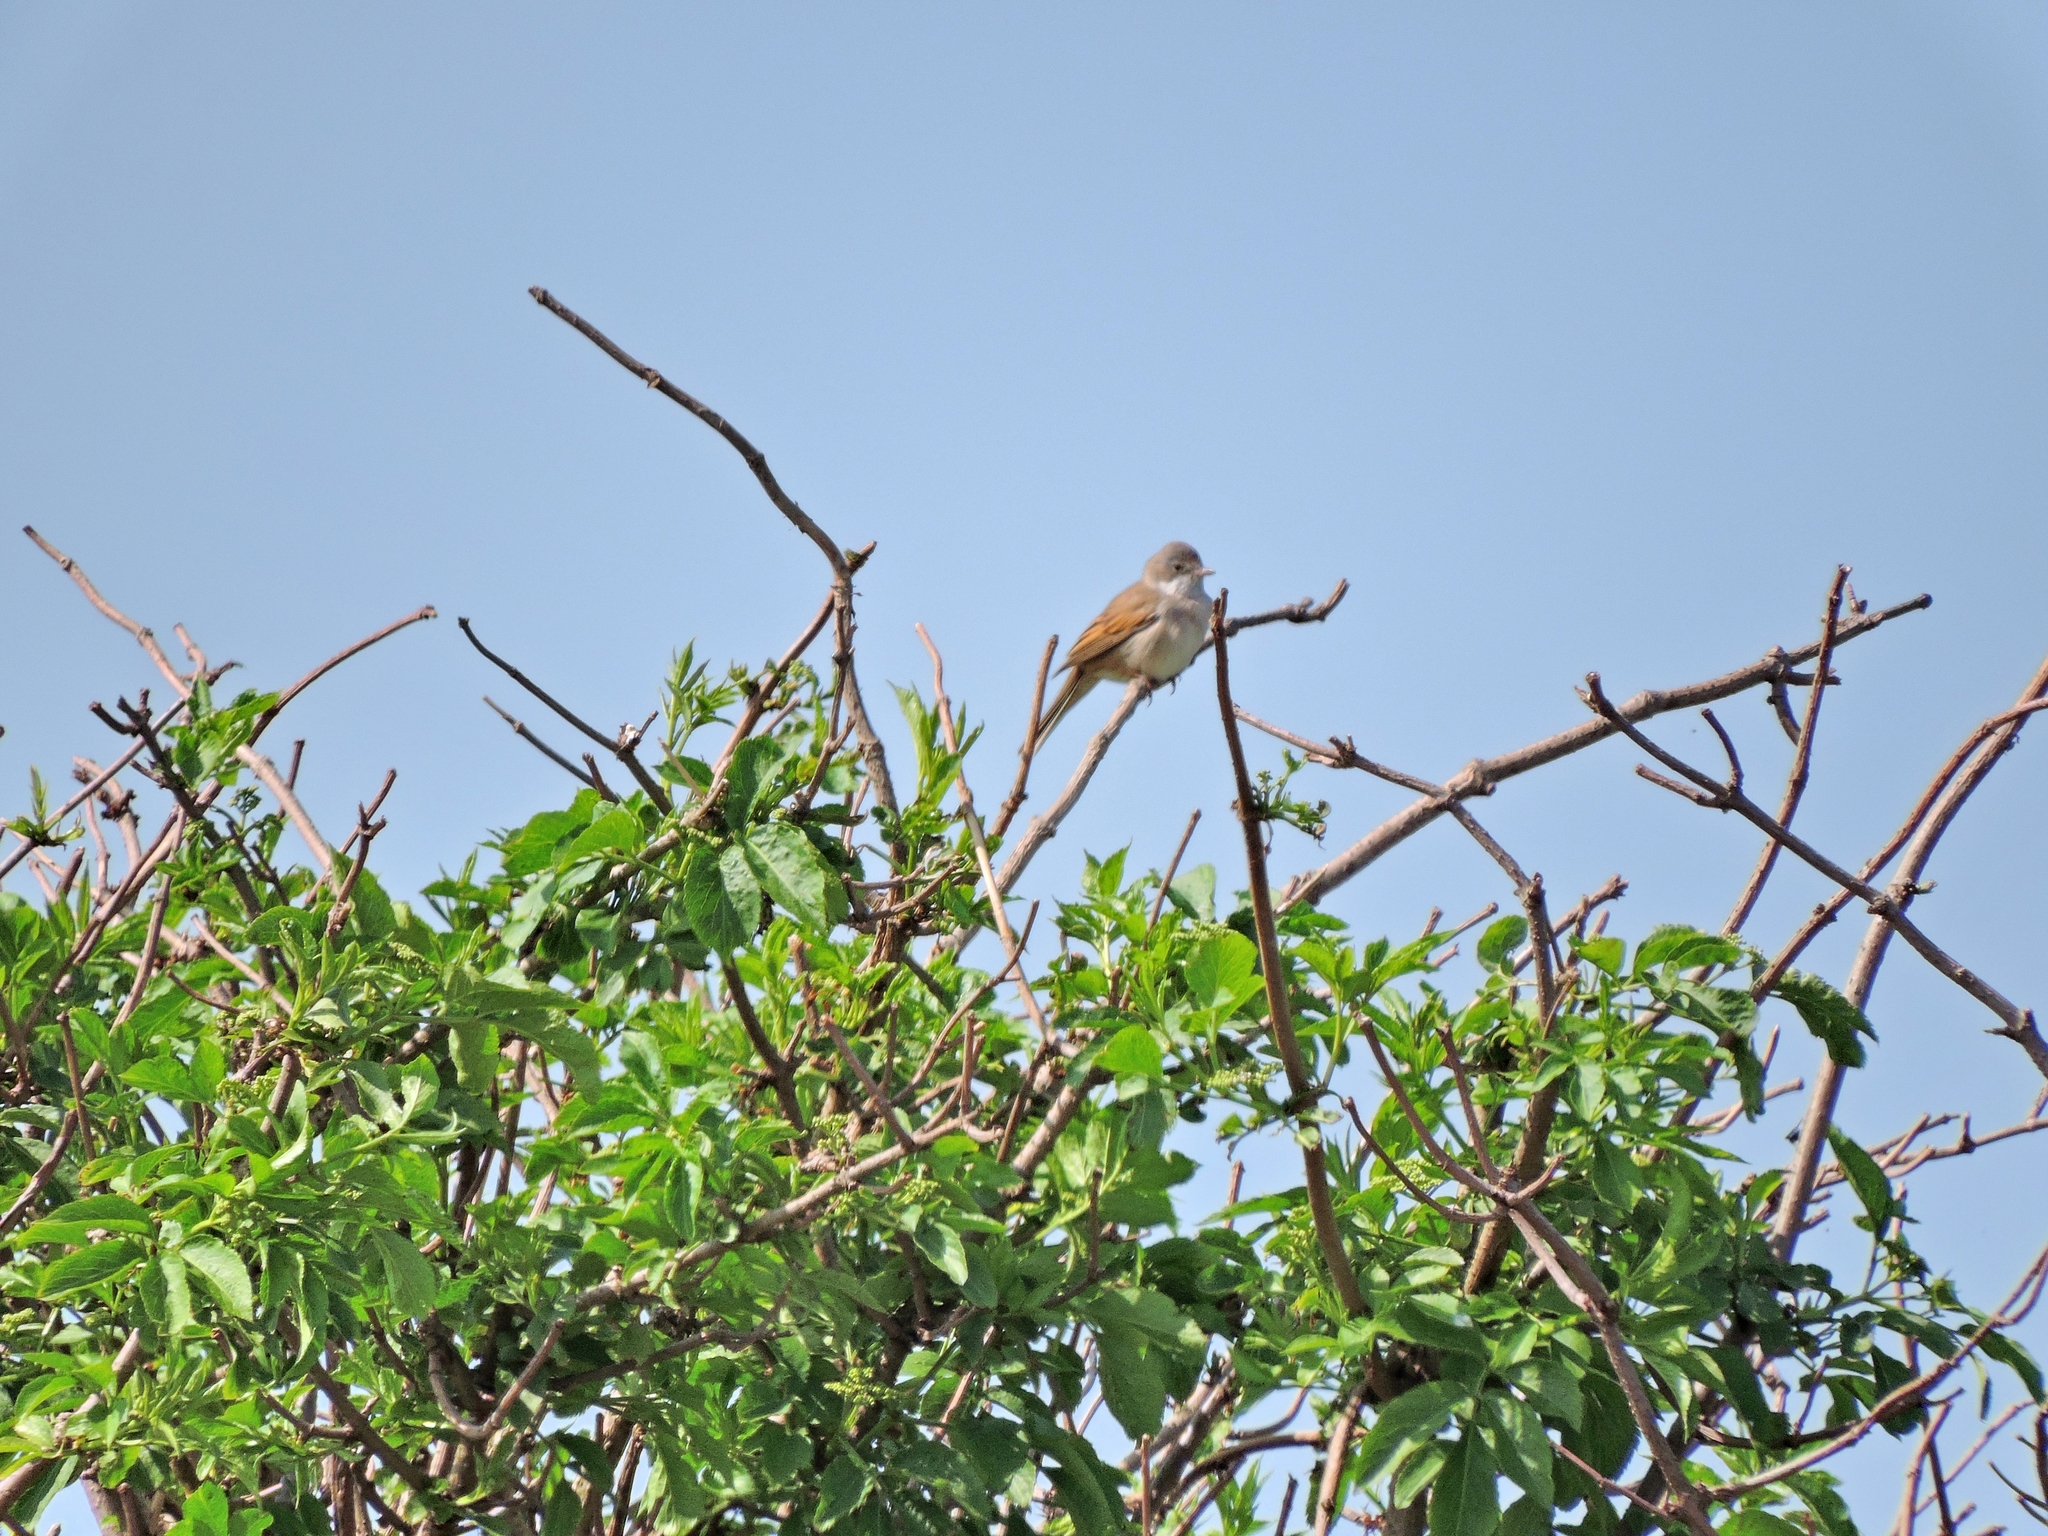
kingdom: Animalia
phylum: Chordata
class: Aves
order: Passeriformes
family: Sylviidae
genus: Sylvia
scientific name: Sylvia communis
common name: Common whitethroat
